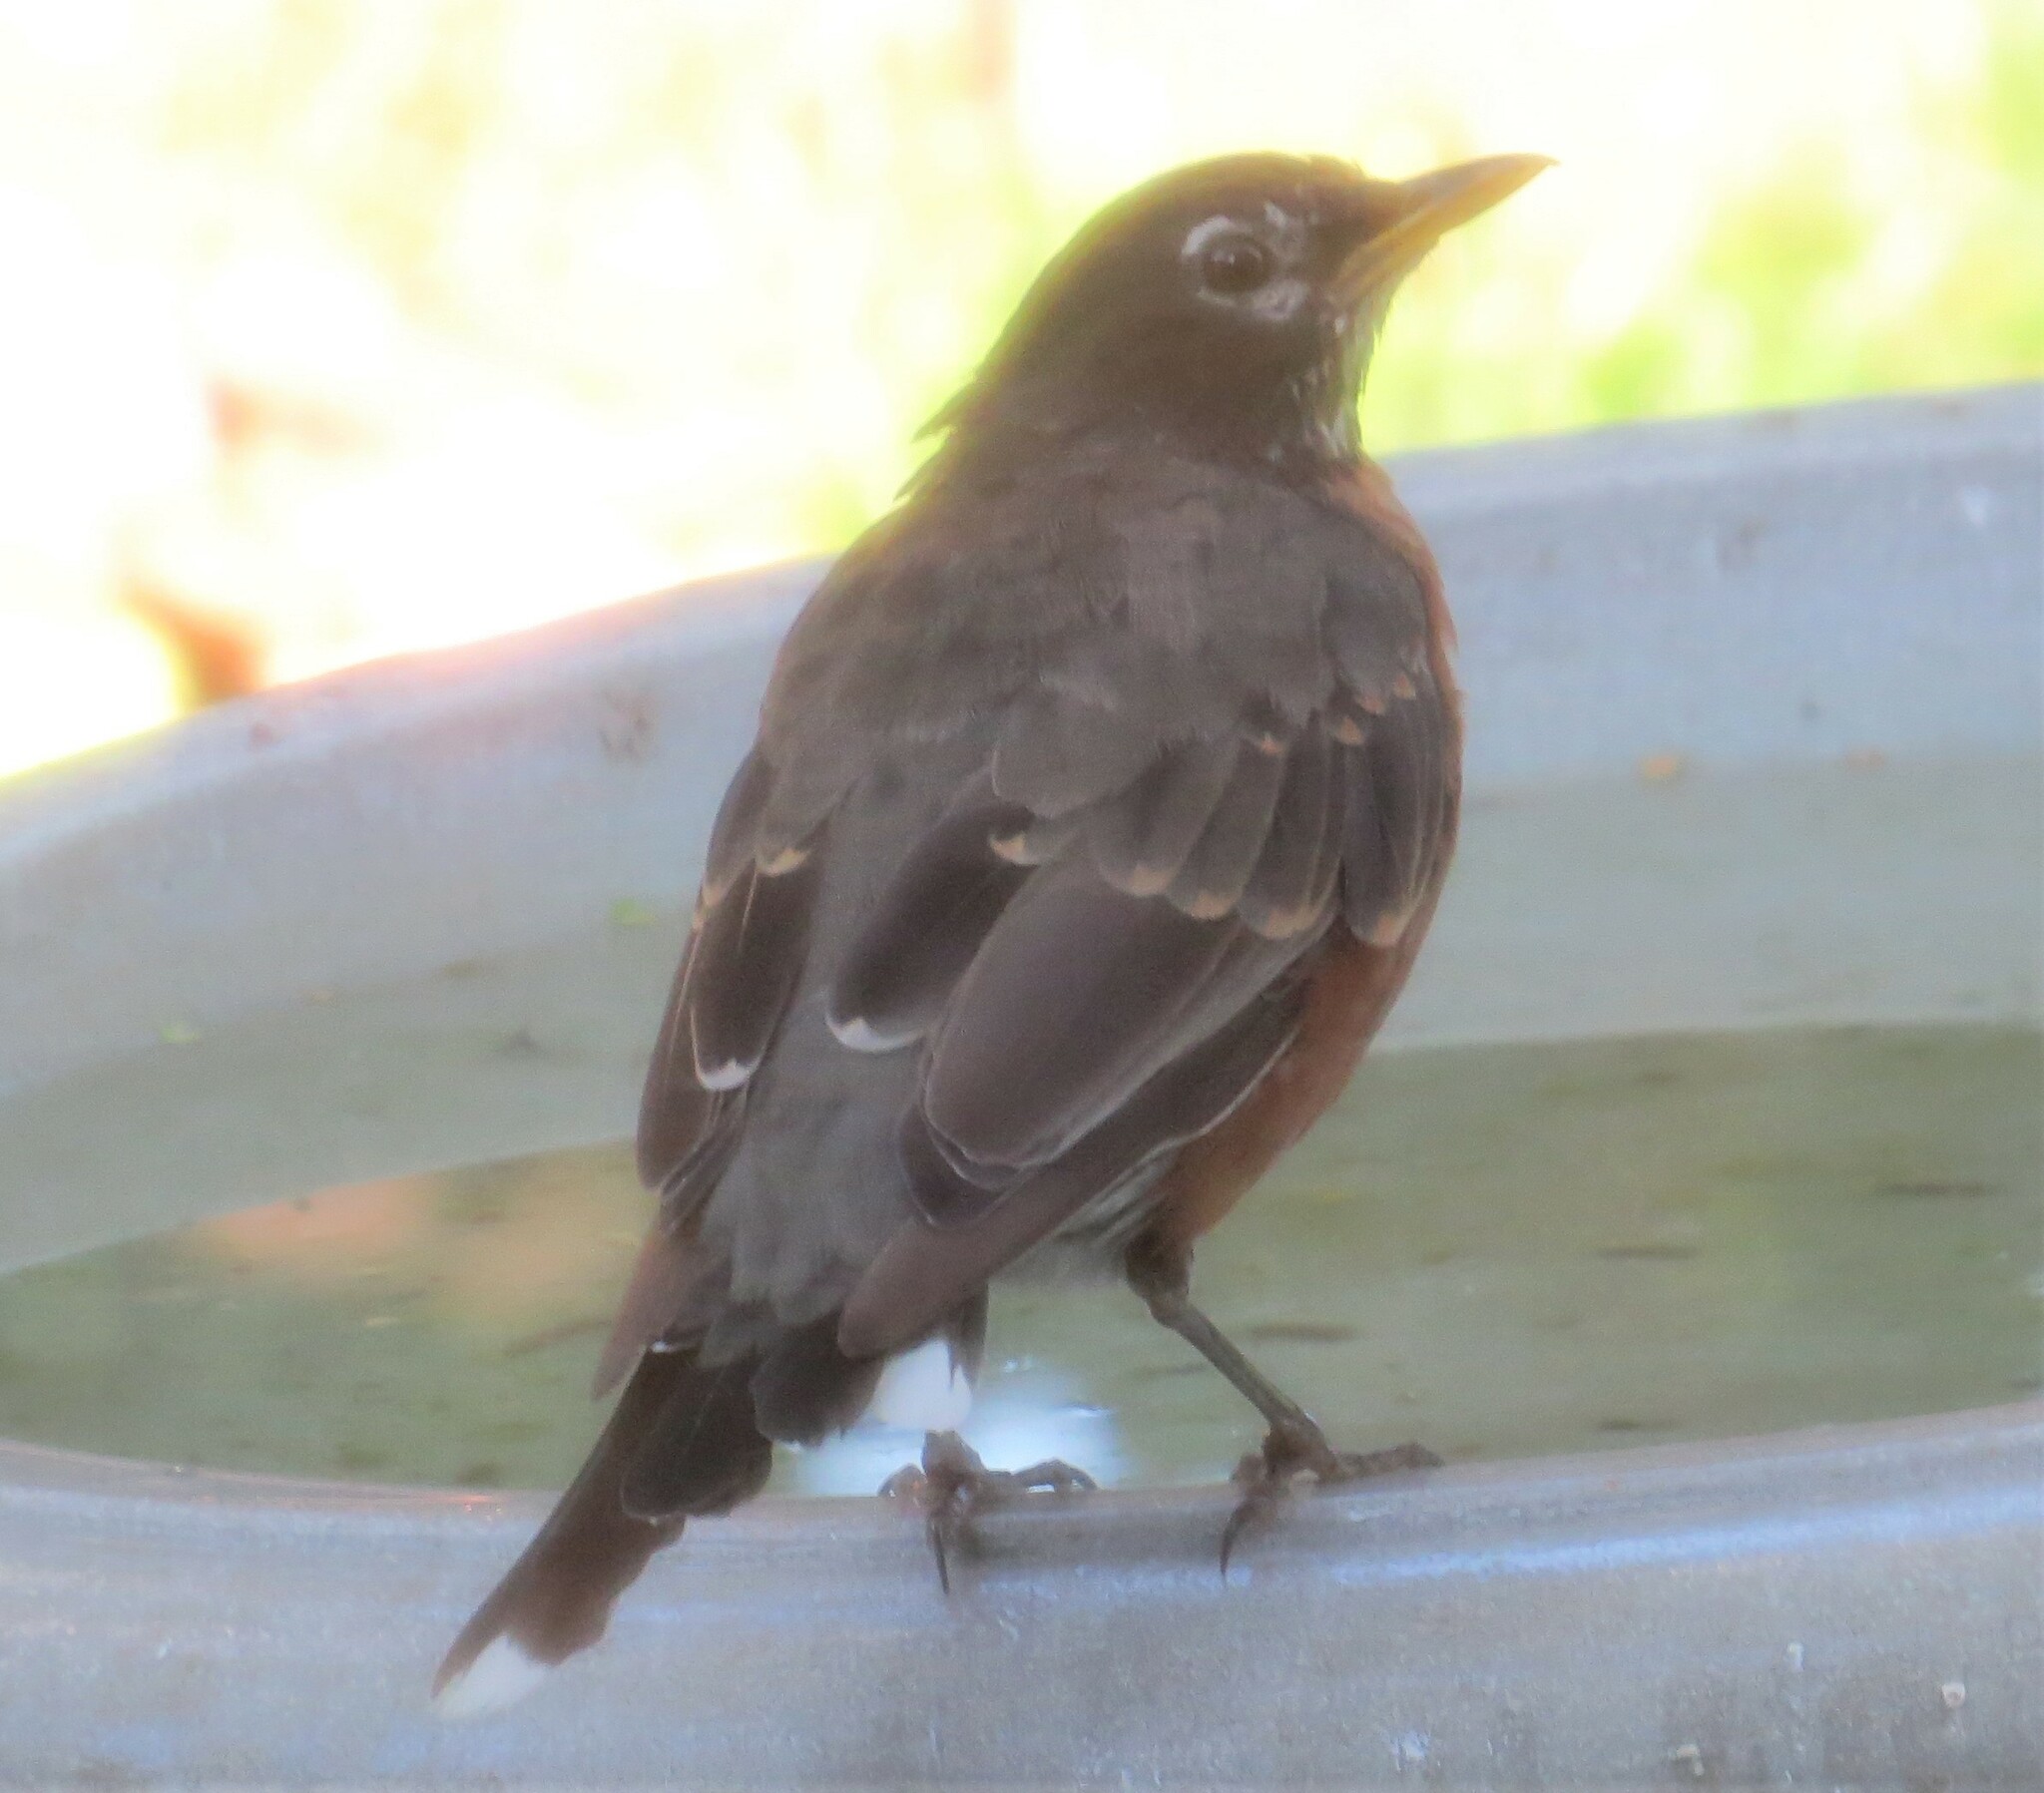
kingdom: Animalia
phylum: Chordata
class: Aves
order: Passeriformes
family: Turdidae
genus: Turdus
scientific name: Turdus migratorius
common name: American robin
